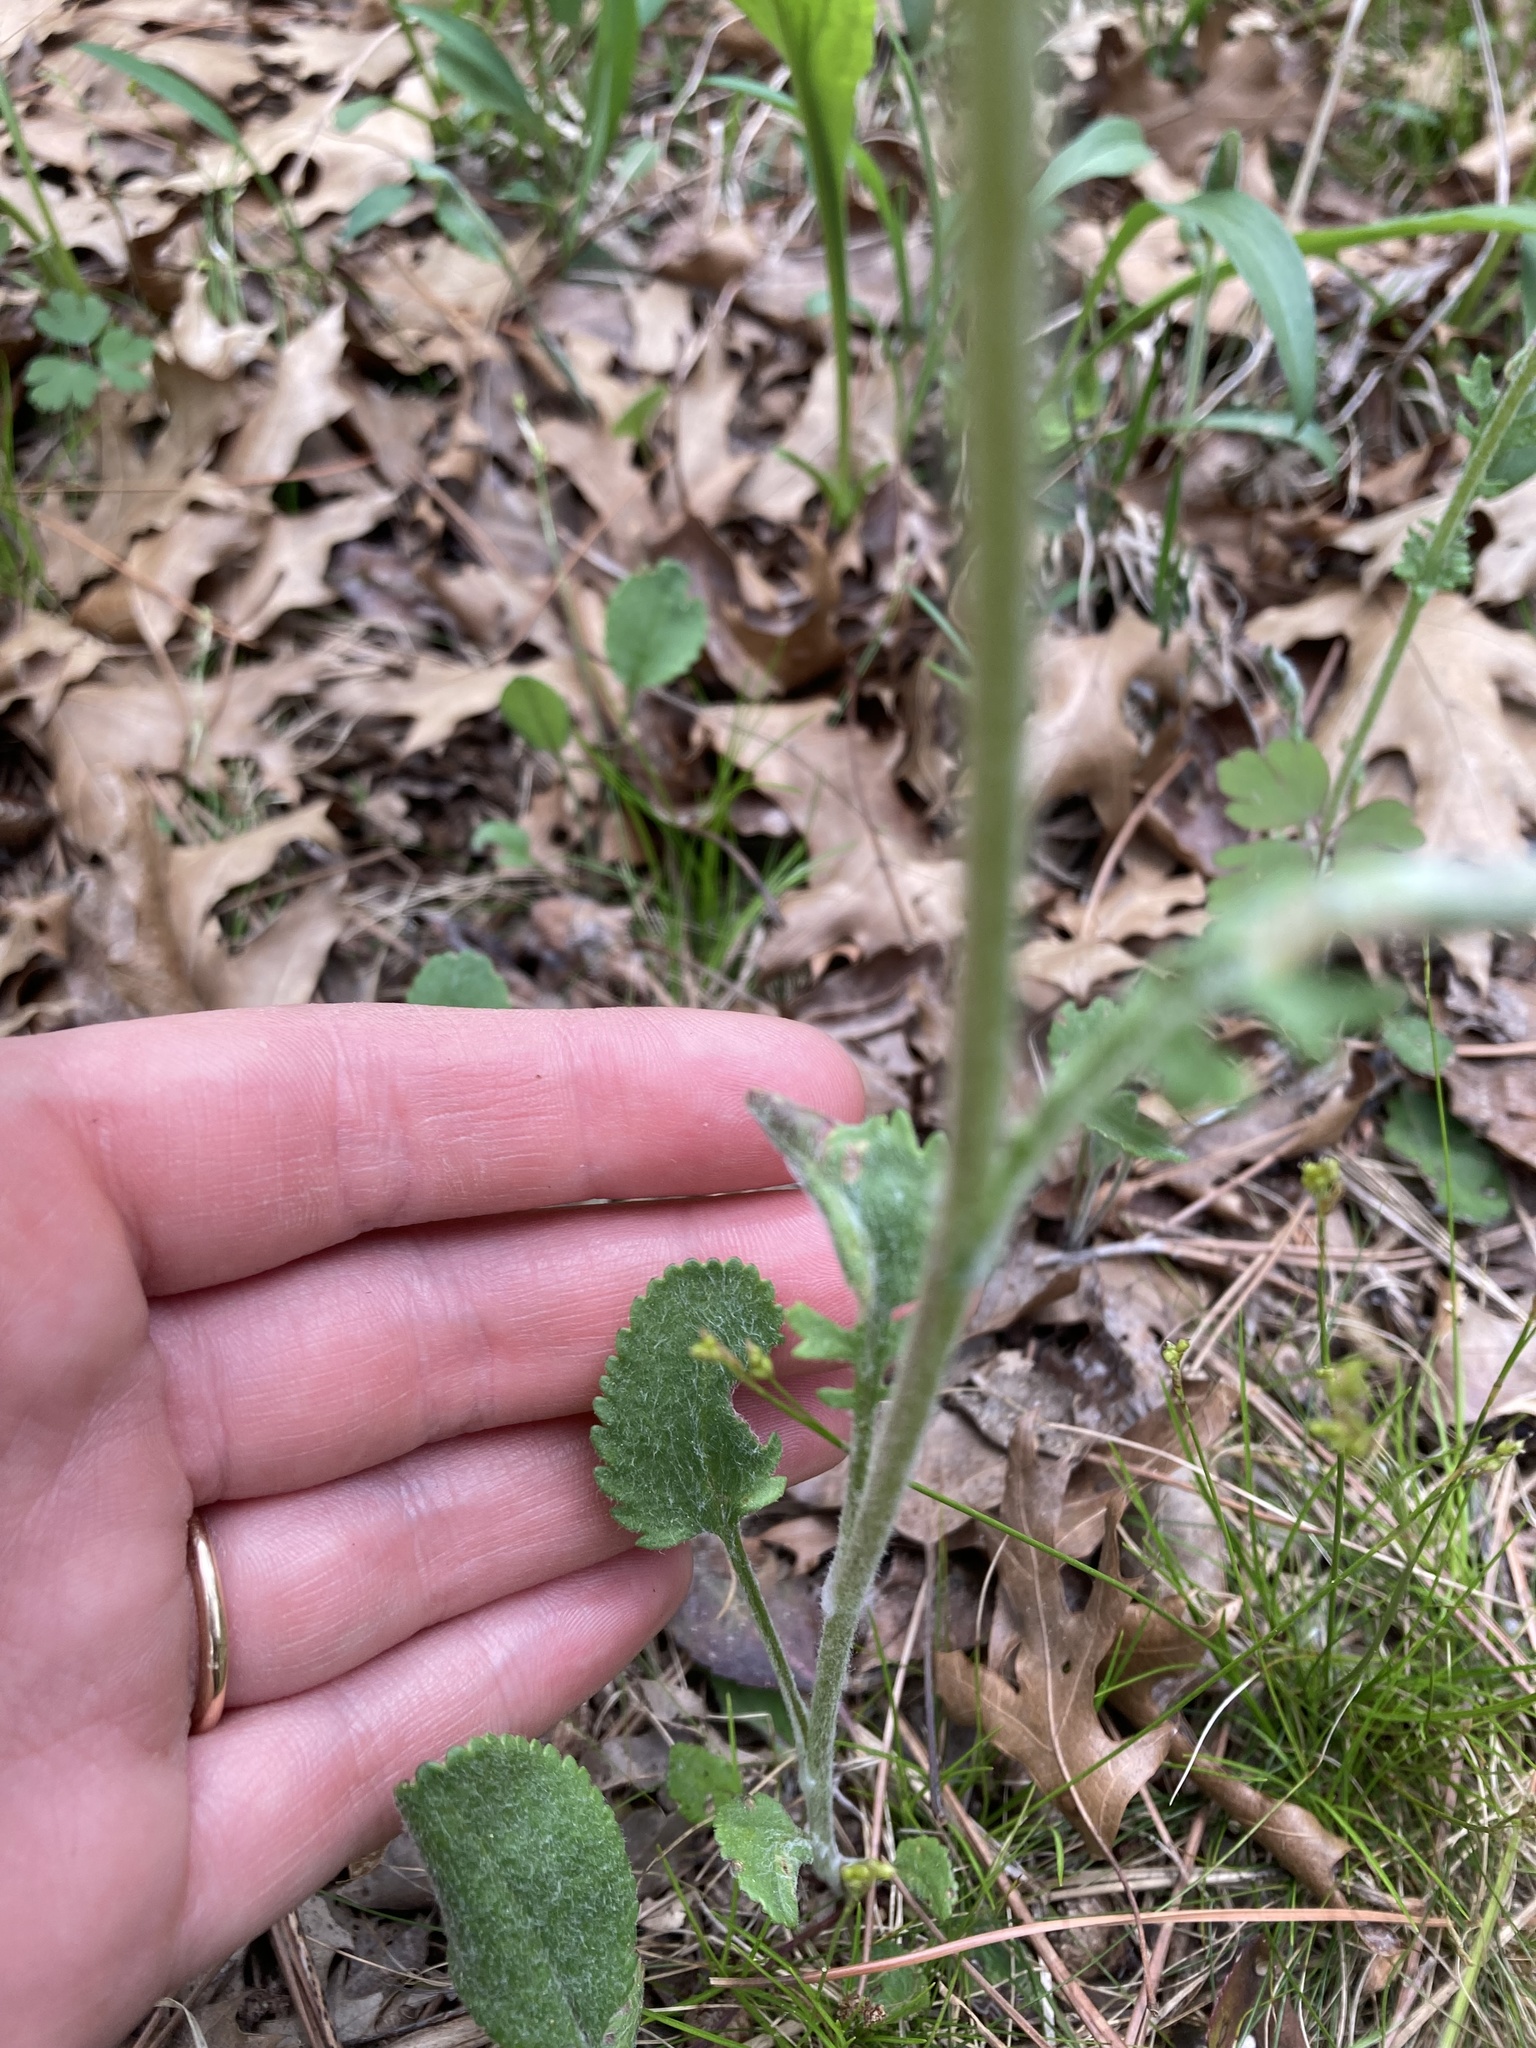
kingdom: Plantae
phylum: Tracheophyta
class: Magnoliopsida
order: Asterales
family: Asteraceae
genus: Packera
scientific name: Packera paupercula
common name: Balsam groundsel
